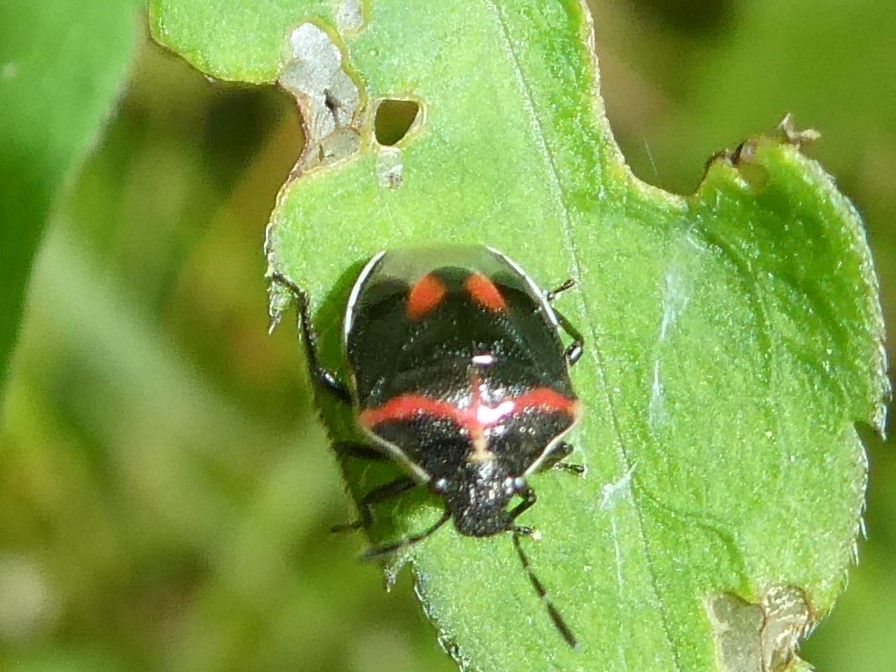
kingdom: Animalia
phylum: Arthropoda
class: Insecta
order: Hemiptera
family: Pentatomidae
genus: Cosmopepla
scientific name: Cosmopepla lintneriana
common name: Twice-stabbed stink bug
